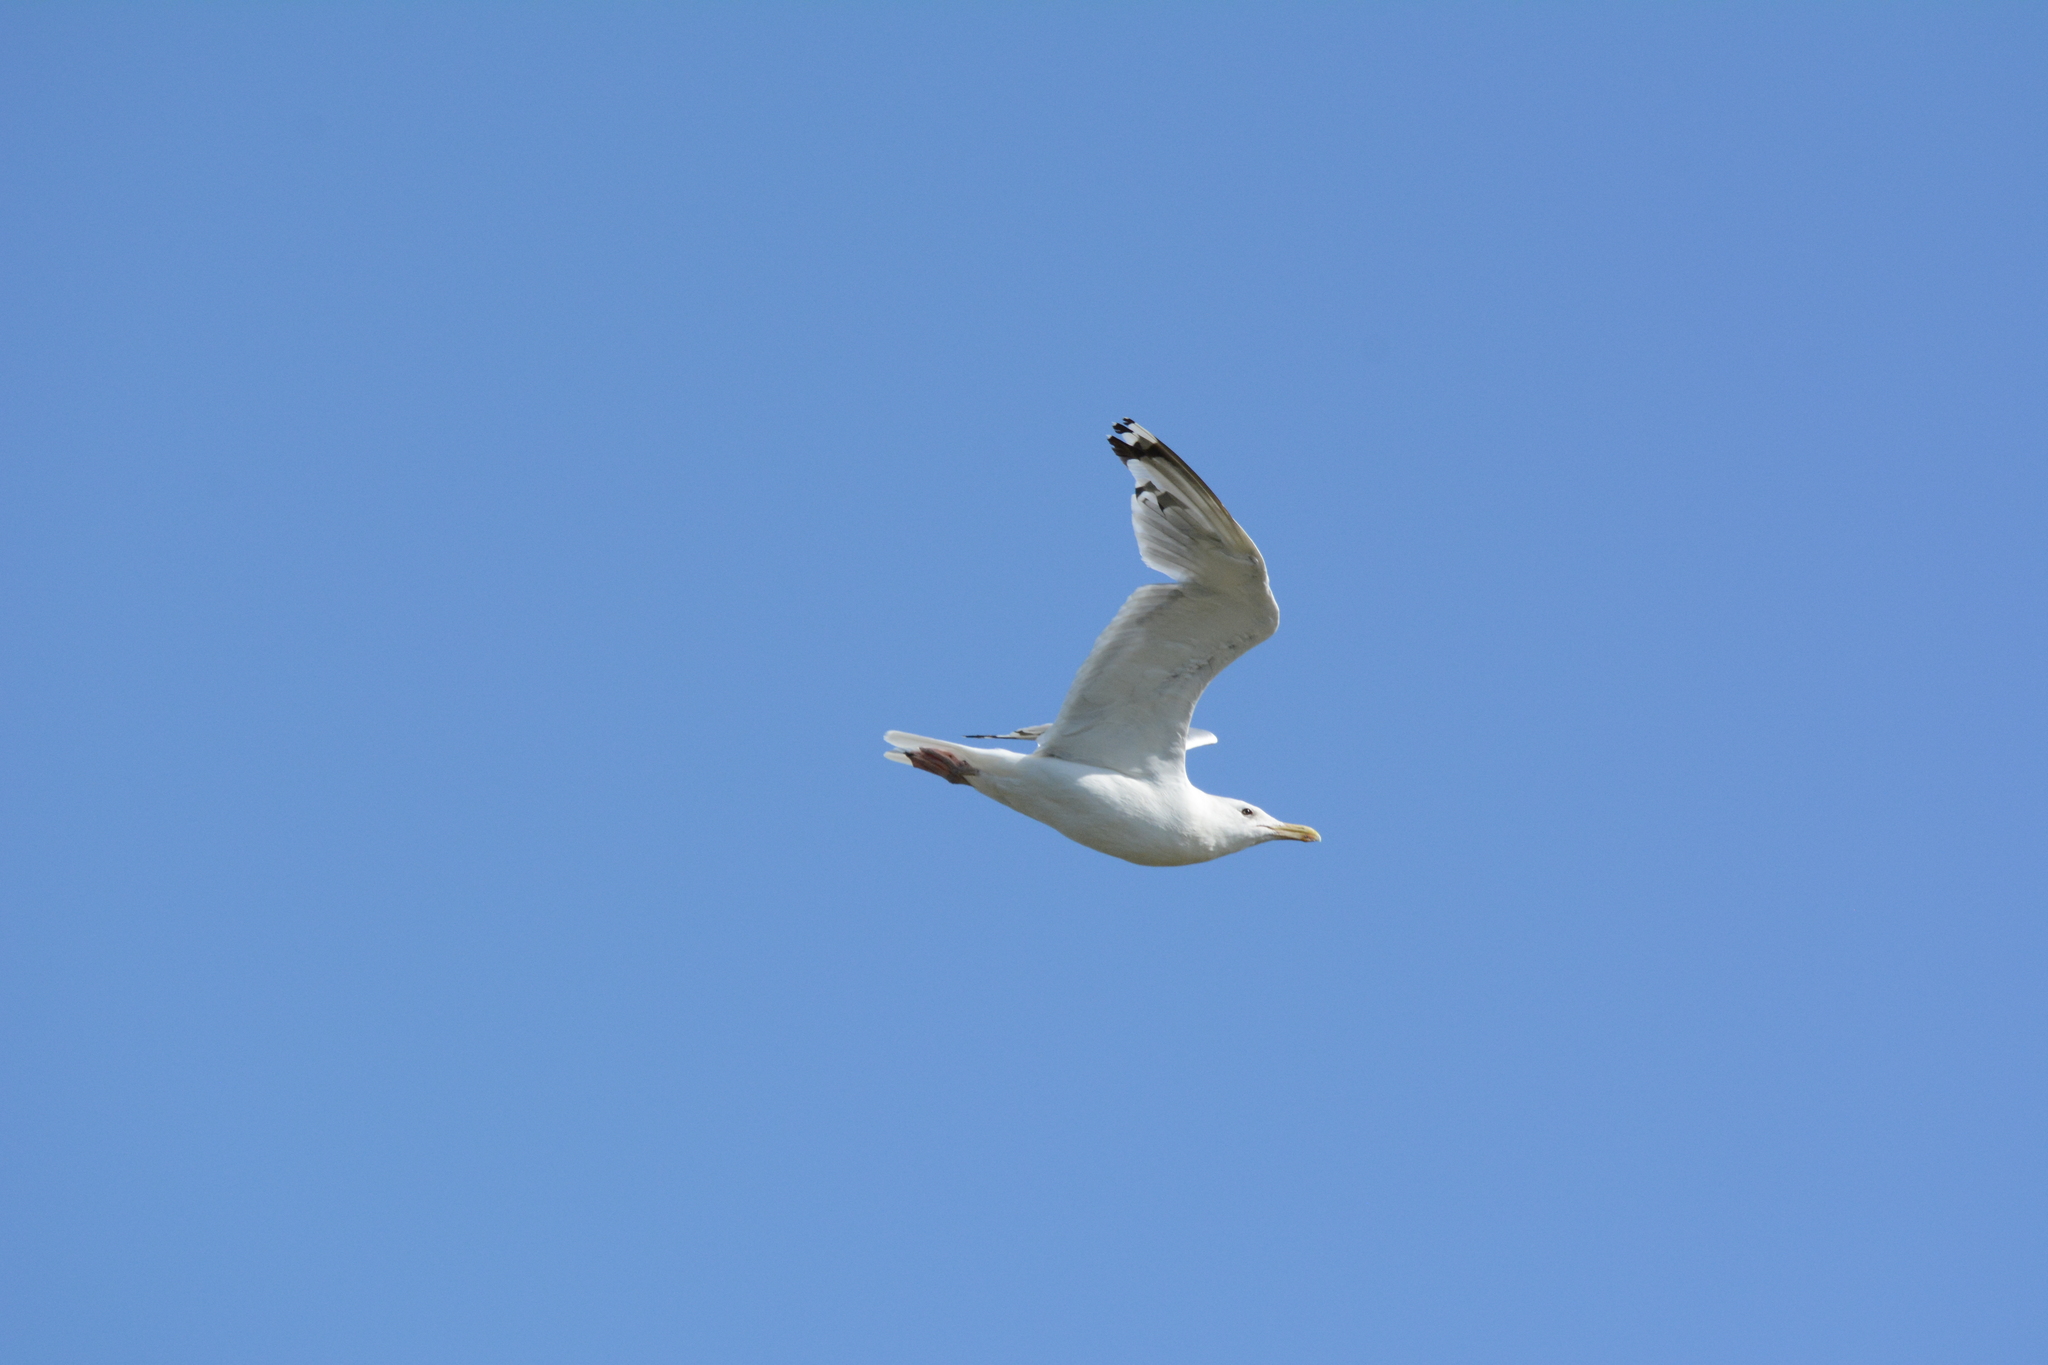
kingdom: Animalia
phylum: Chordata
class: Aves
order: Charadriiformes
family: Laridae
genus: Larus
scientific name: Larus cachinnans
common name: Caspian gull
